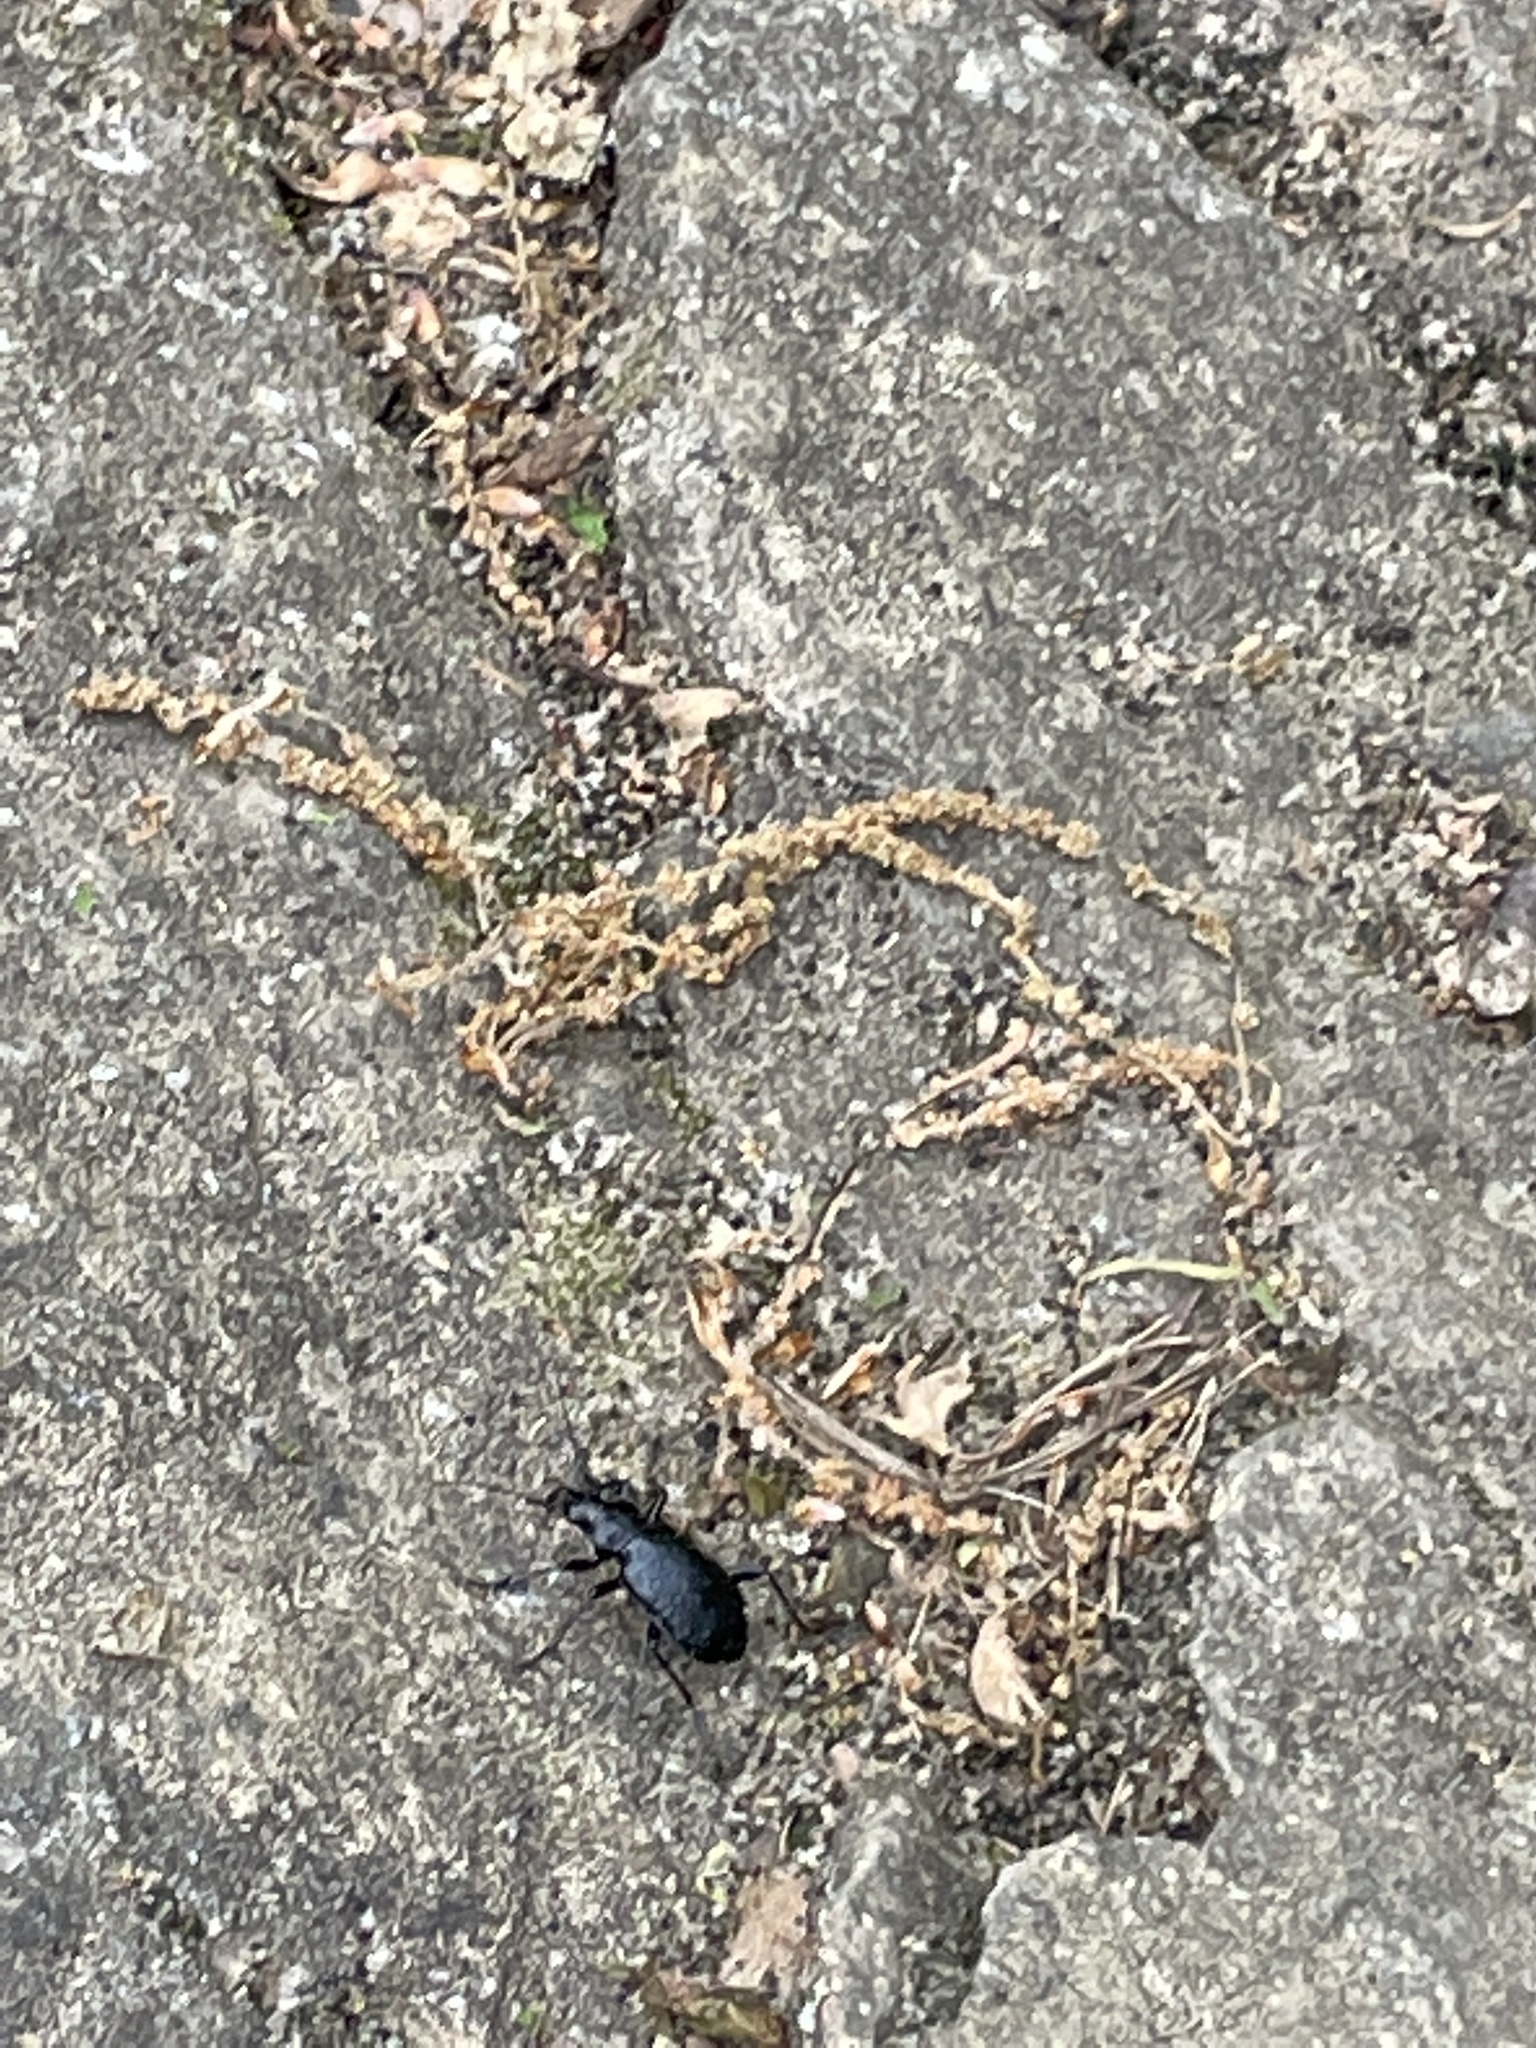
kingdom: Animalia
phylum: Arthropoda
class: Insecta
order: Coleoptera
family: Carabidae
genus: Calosoma
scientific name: Calosoma frigidum
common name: Cold-country caterpillar hunter
